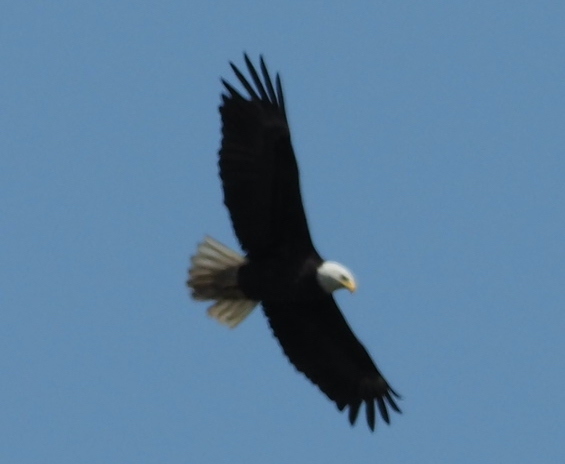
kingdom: Animalia
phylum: Chordata
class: Aves
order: Accipitriformes
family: Accipitridae
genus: Haliaeetus
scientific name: Haliaeetus leucocephalus
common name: Bald eagle
